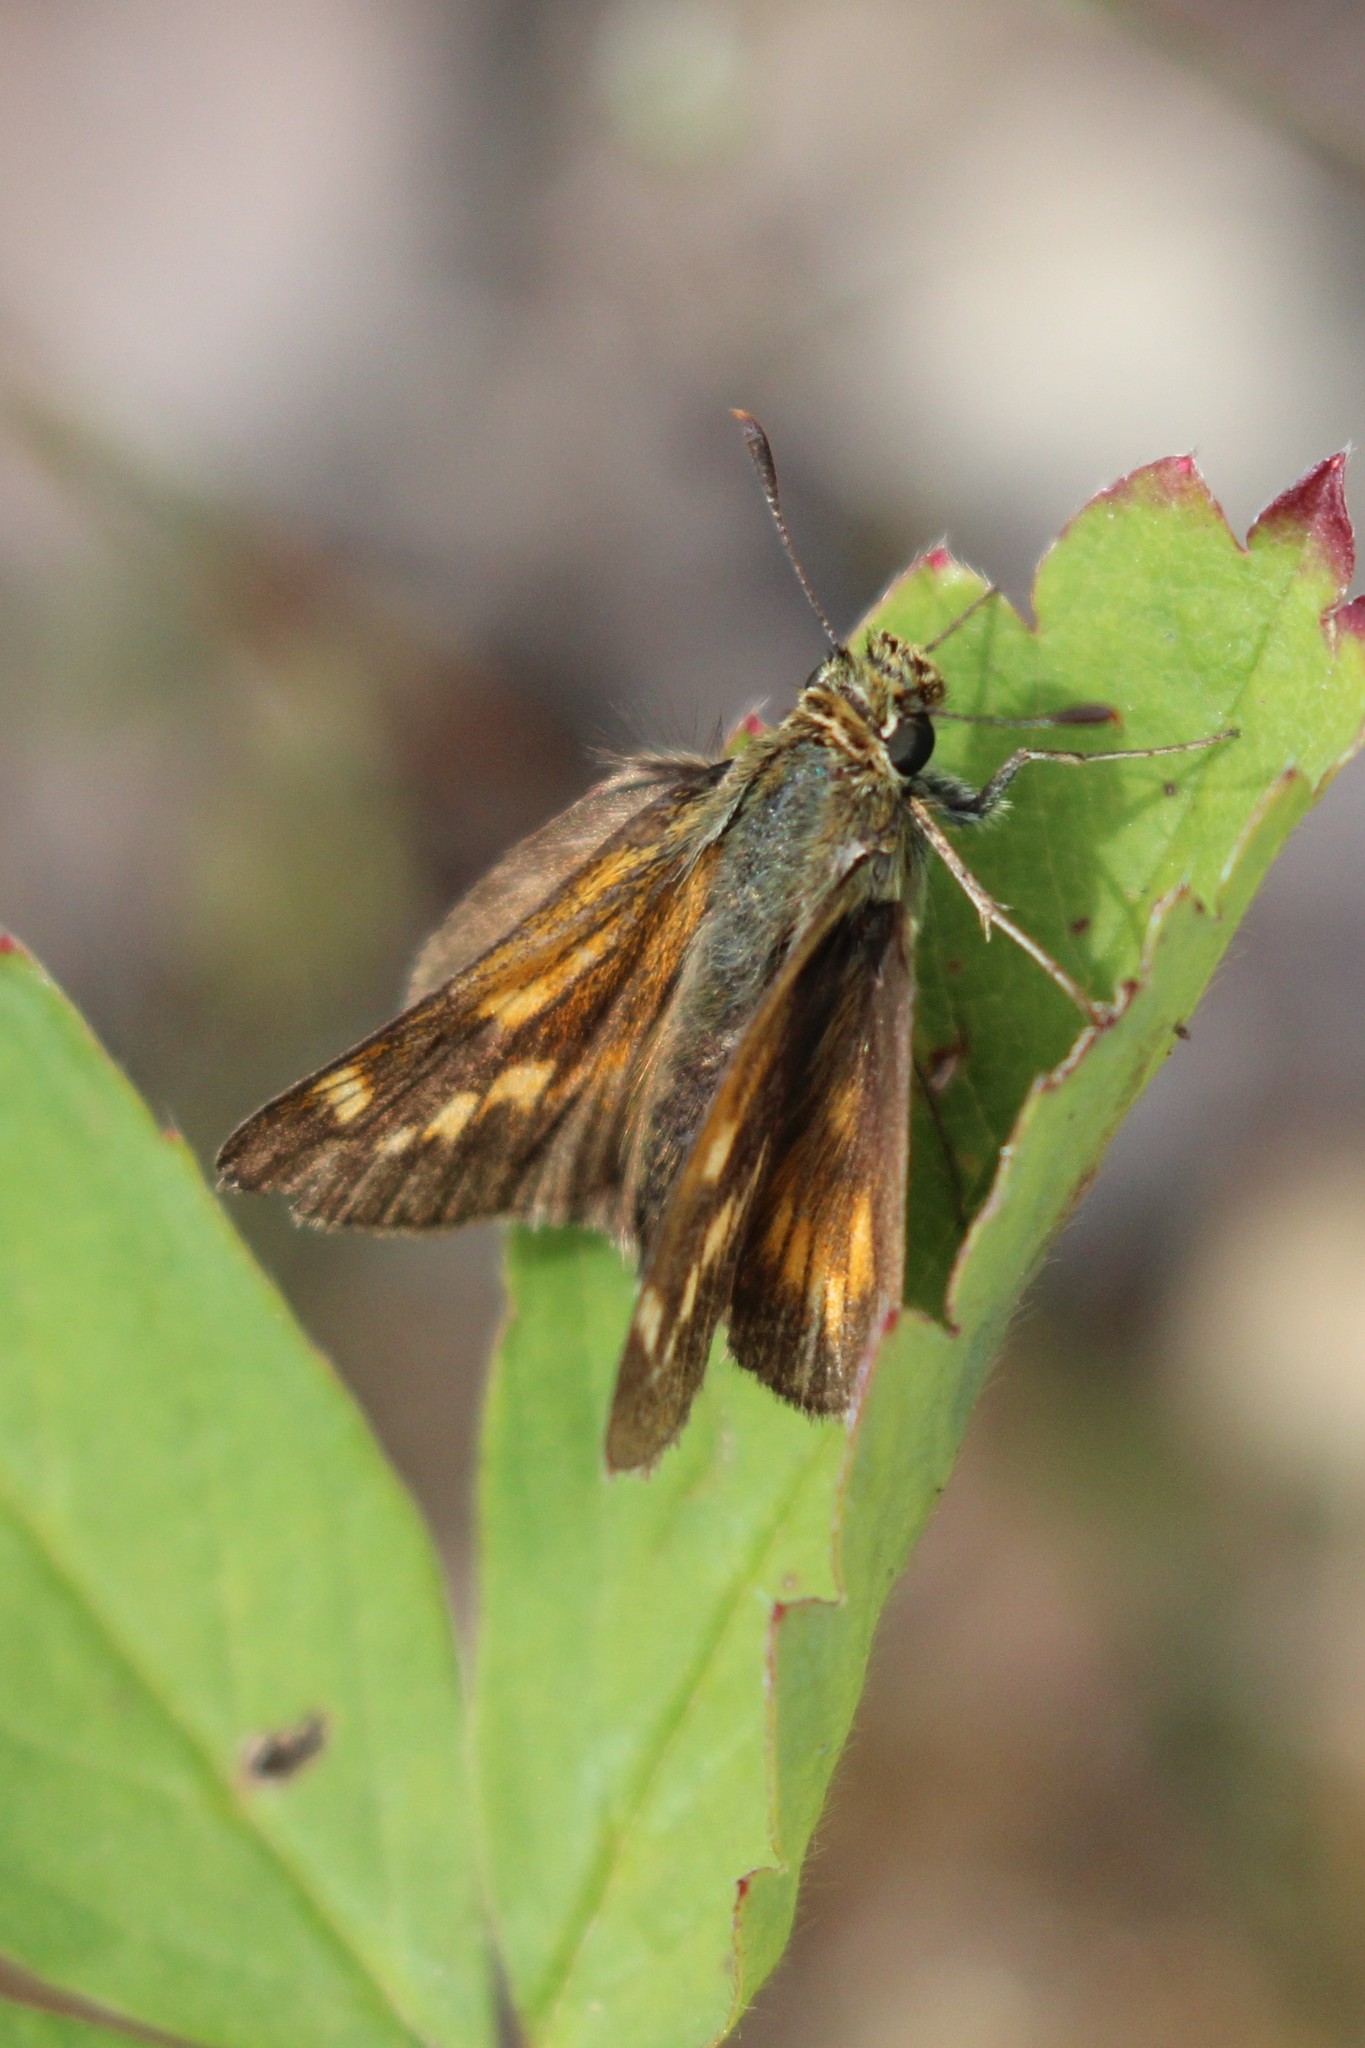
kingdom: Animalia
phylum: Arthropoda
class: Insecta
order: Lepidoptera
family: Hesperiidae
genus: Polites
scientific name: Polites mystic
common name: Long dash
